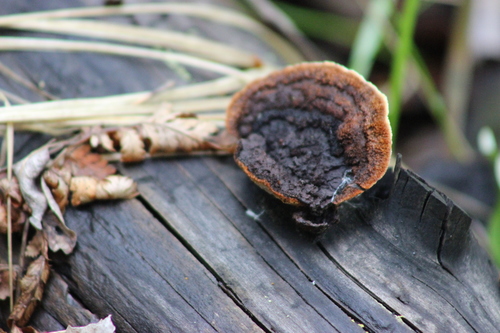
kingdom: Fungi
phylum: Basidiomycota
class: Agaricomycetes
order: Gloeophyllales
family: Gloeophyllaceae
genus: Gloeophyllum
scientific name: Gloeophyllum sepiarium
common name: Conifer mazegill
